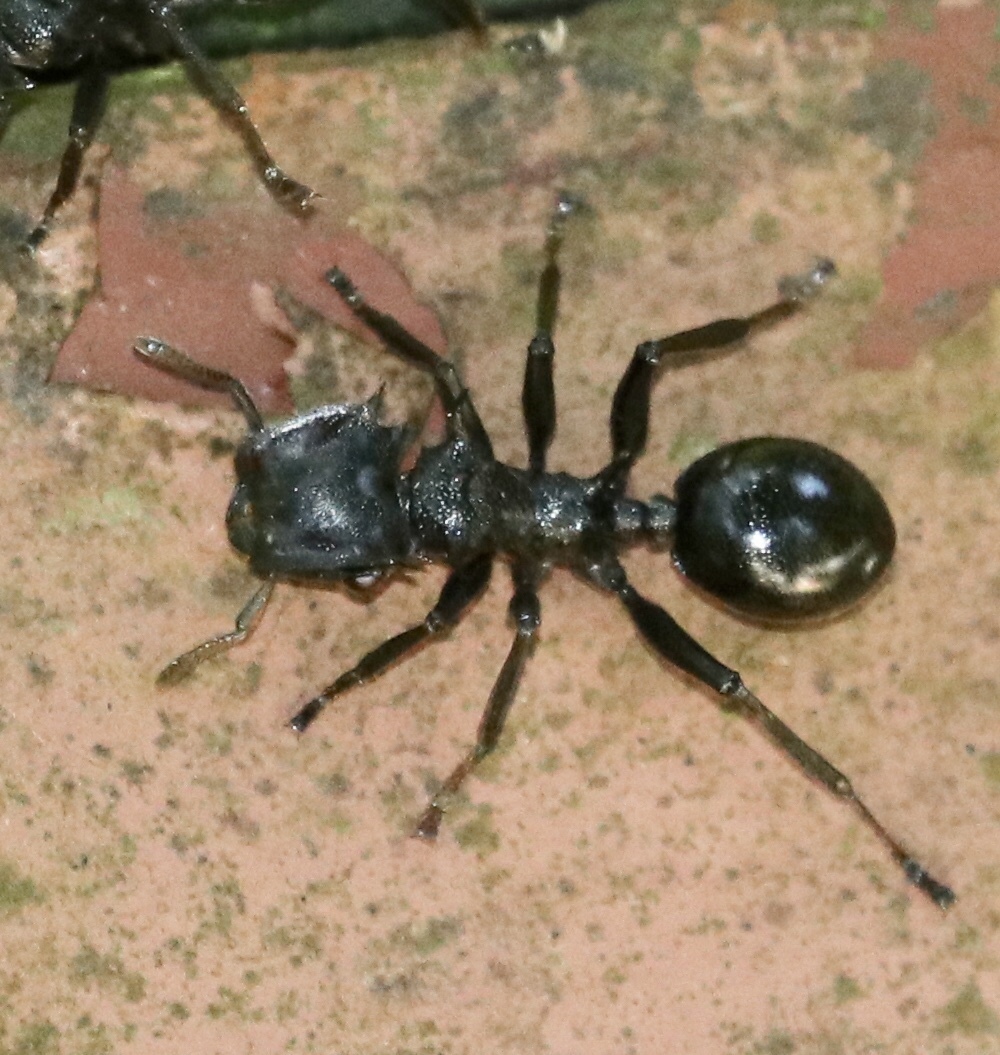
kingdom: Animalia
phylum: Arthropoda
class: Insecta
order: Hymenoptera
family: Formicidae
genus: Cephalotes
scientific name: Cephalotes atratus
